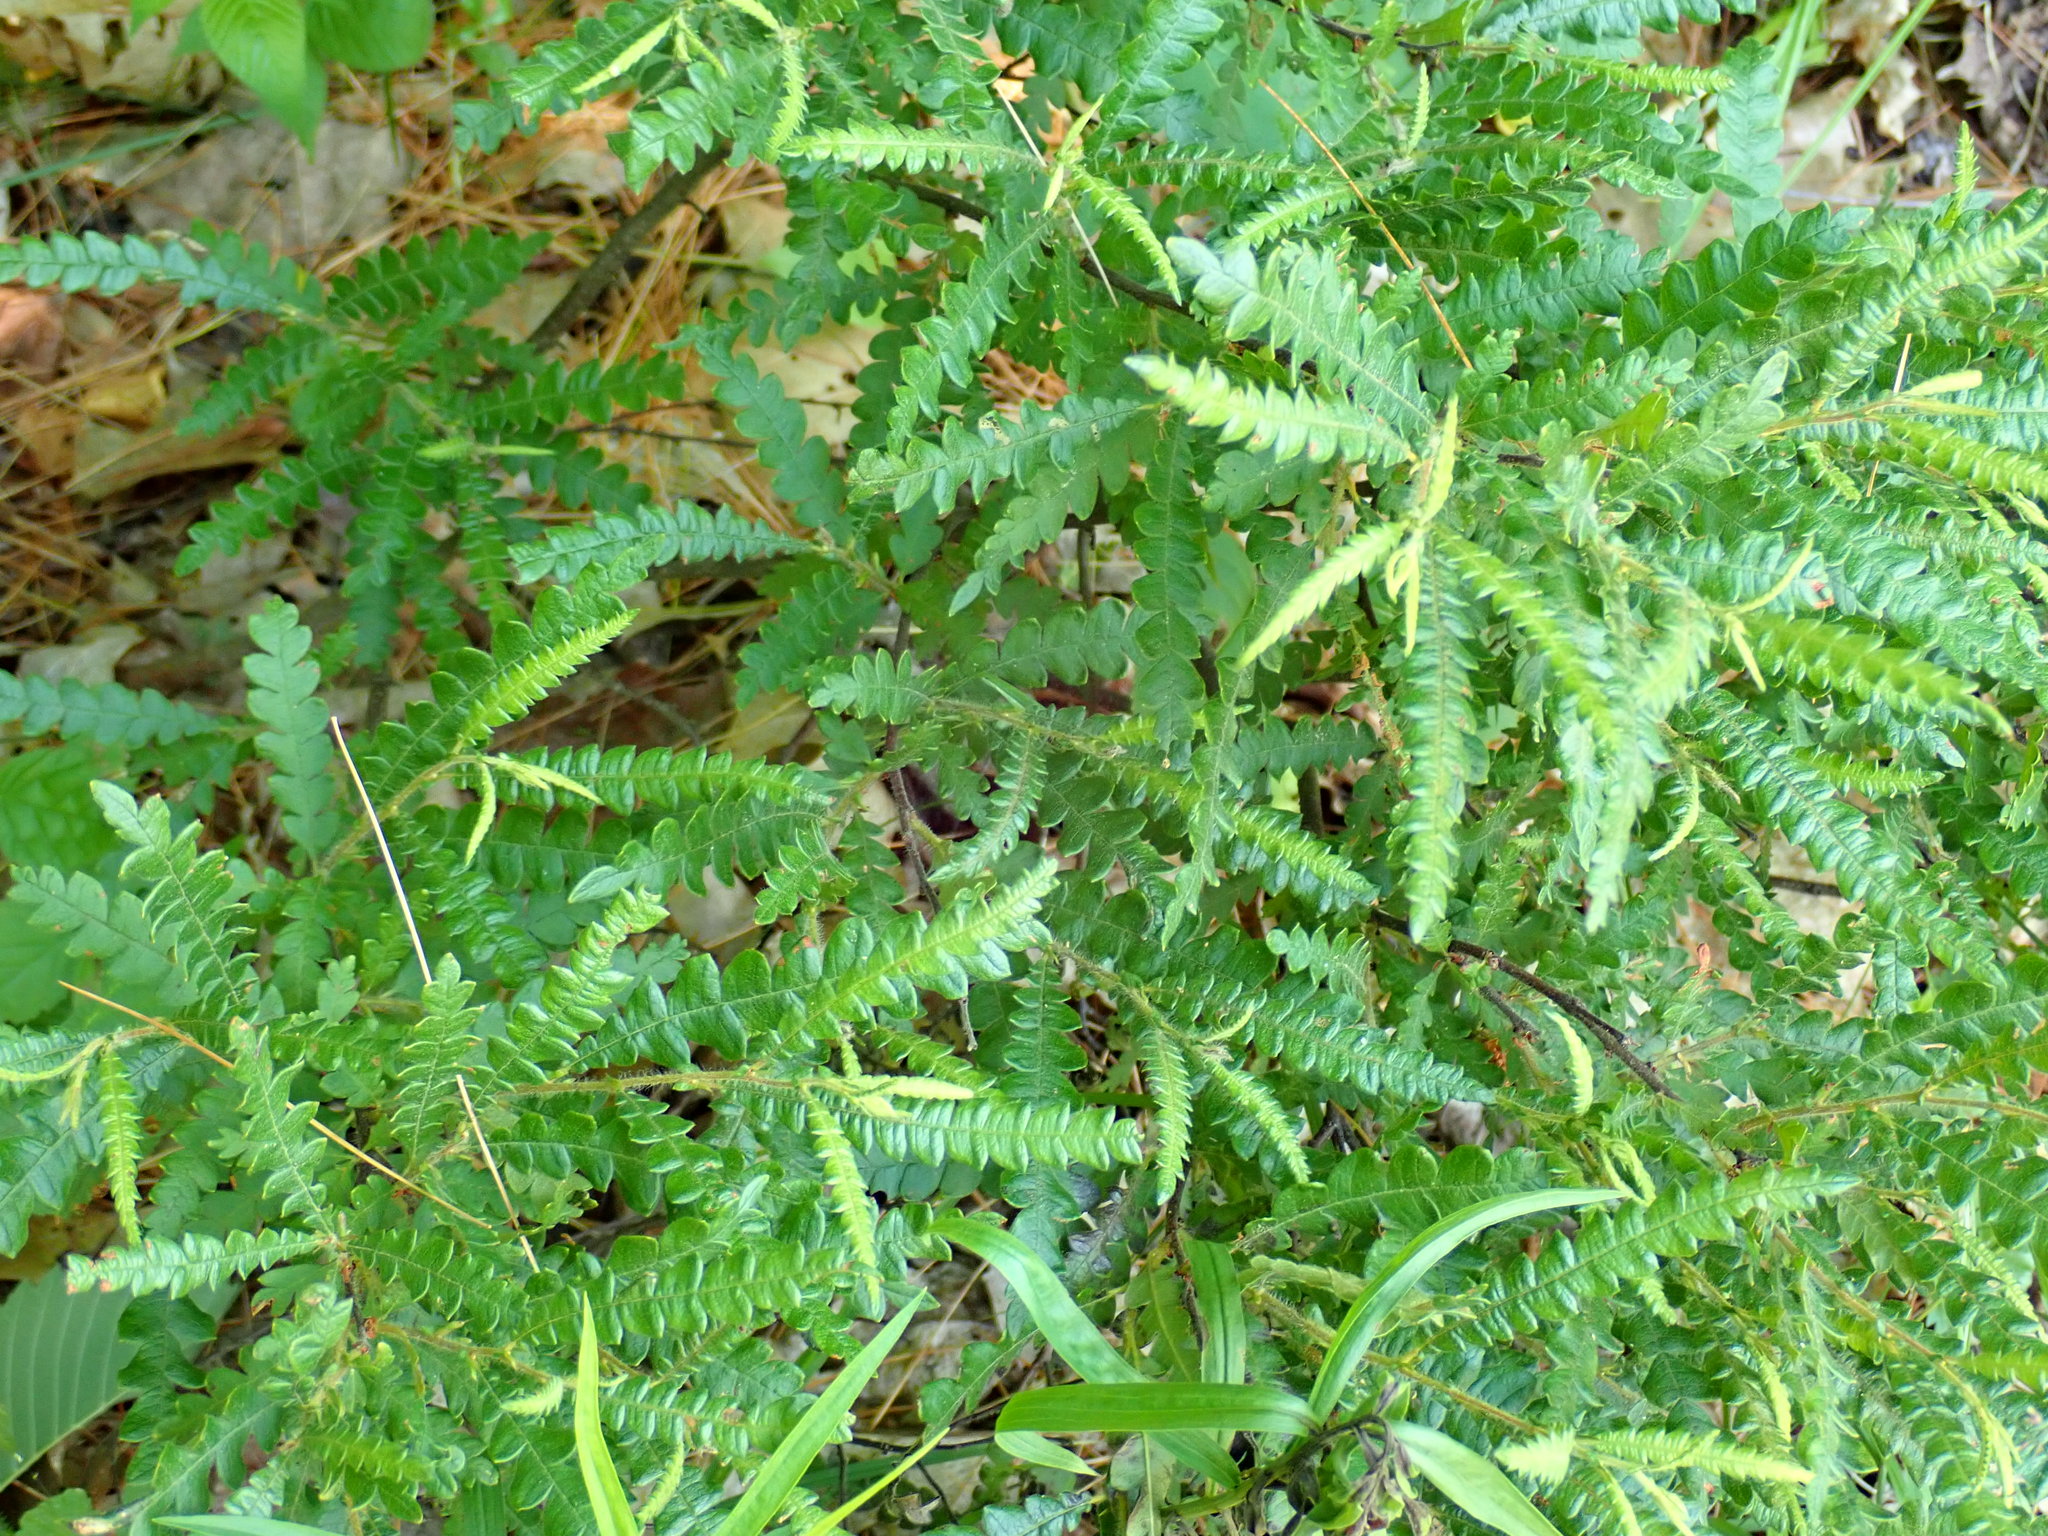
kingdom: Plantae
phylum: Tracheophyta
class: Magnoliopsida
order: Fagales
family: Myricaceae
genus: Comptonia
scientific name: Comptonia peregrina
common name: Sweet-fern
